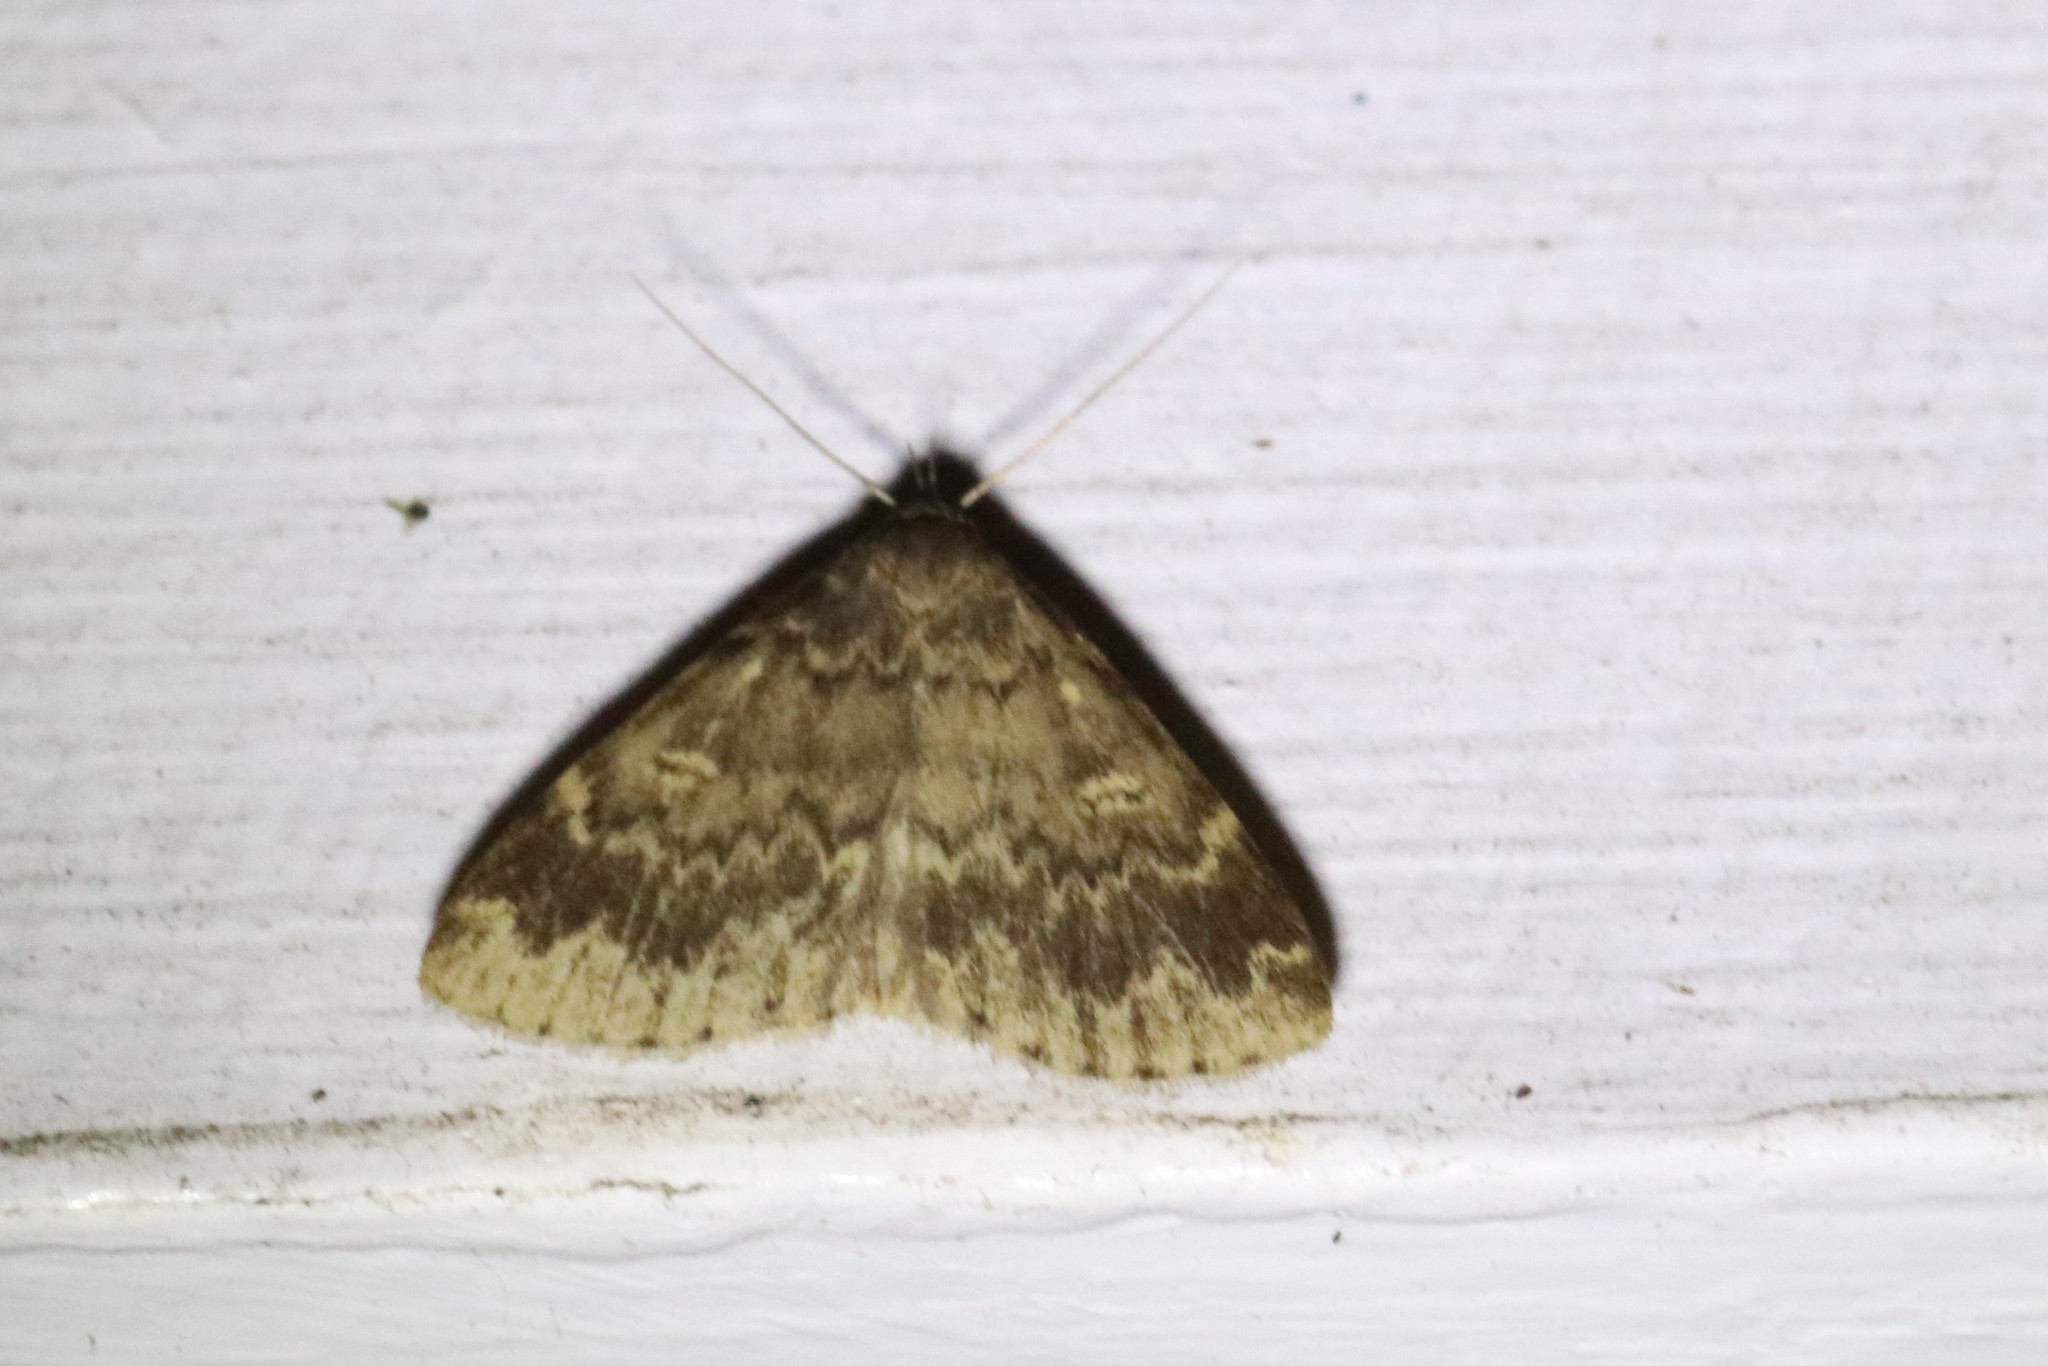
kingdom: Animalia
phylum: Arthropoda
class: Insecta
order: Lepidoptera
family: Erebidae
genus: Idia
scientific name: Idia lubricalis
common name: Twin-striped tabby
